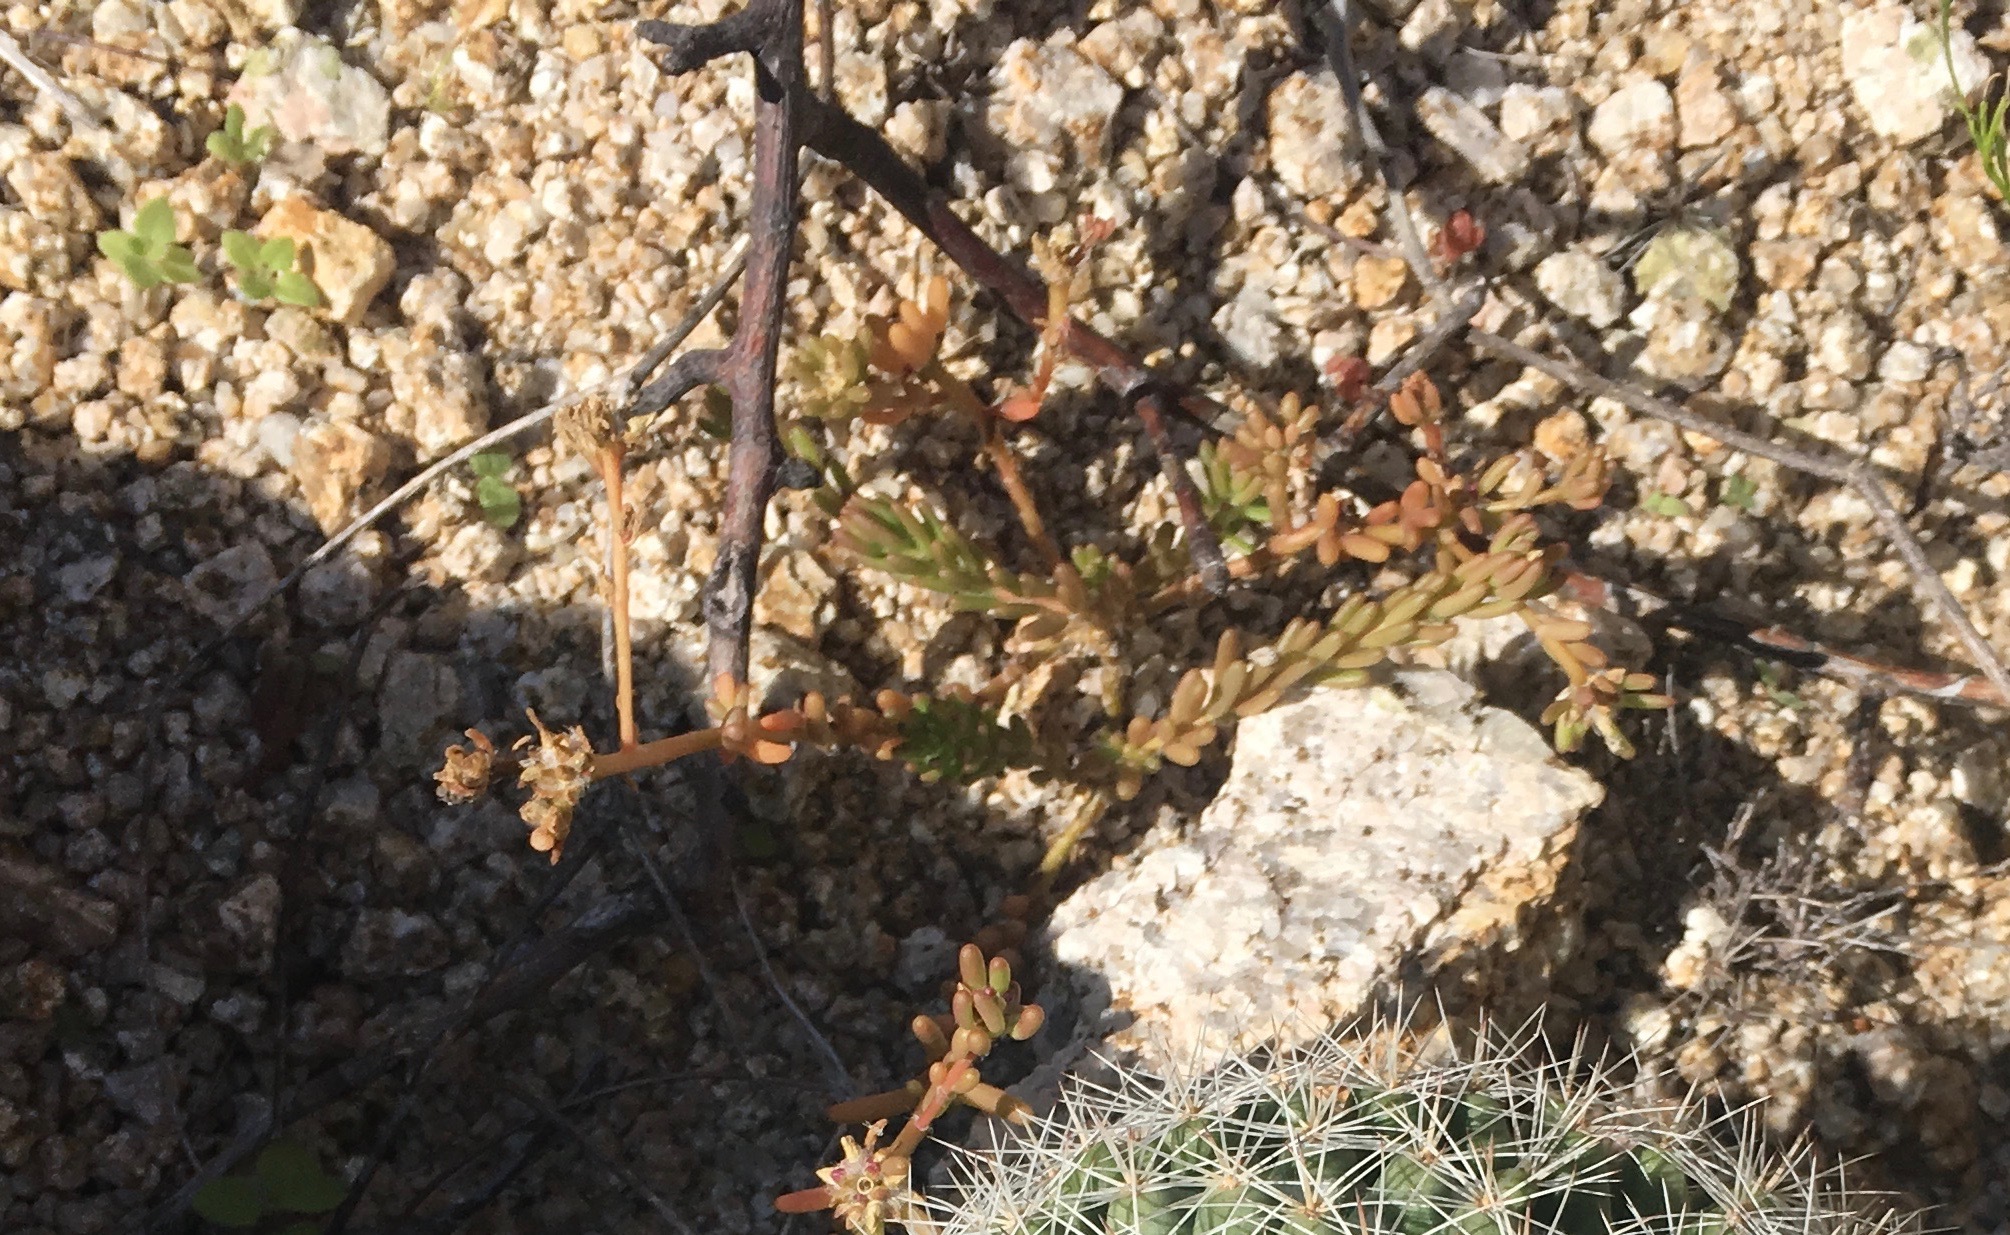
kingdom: Plantae
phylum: Tracheophyta
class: Magnoliopsida
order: Caryophyllales
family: Portulacaceae
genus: Portulaca
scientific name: Portulaca californica
